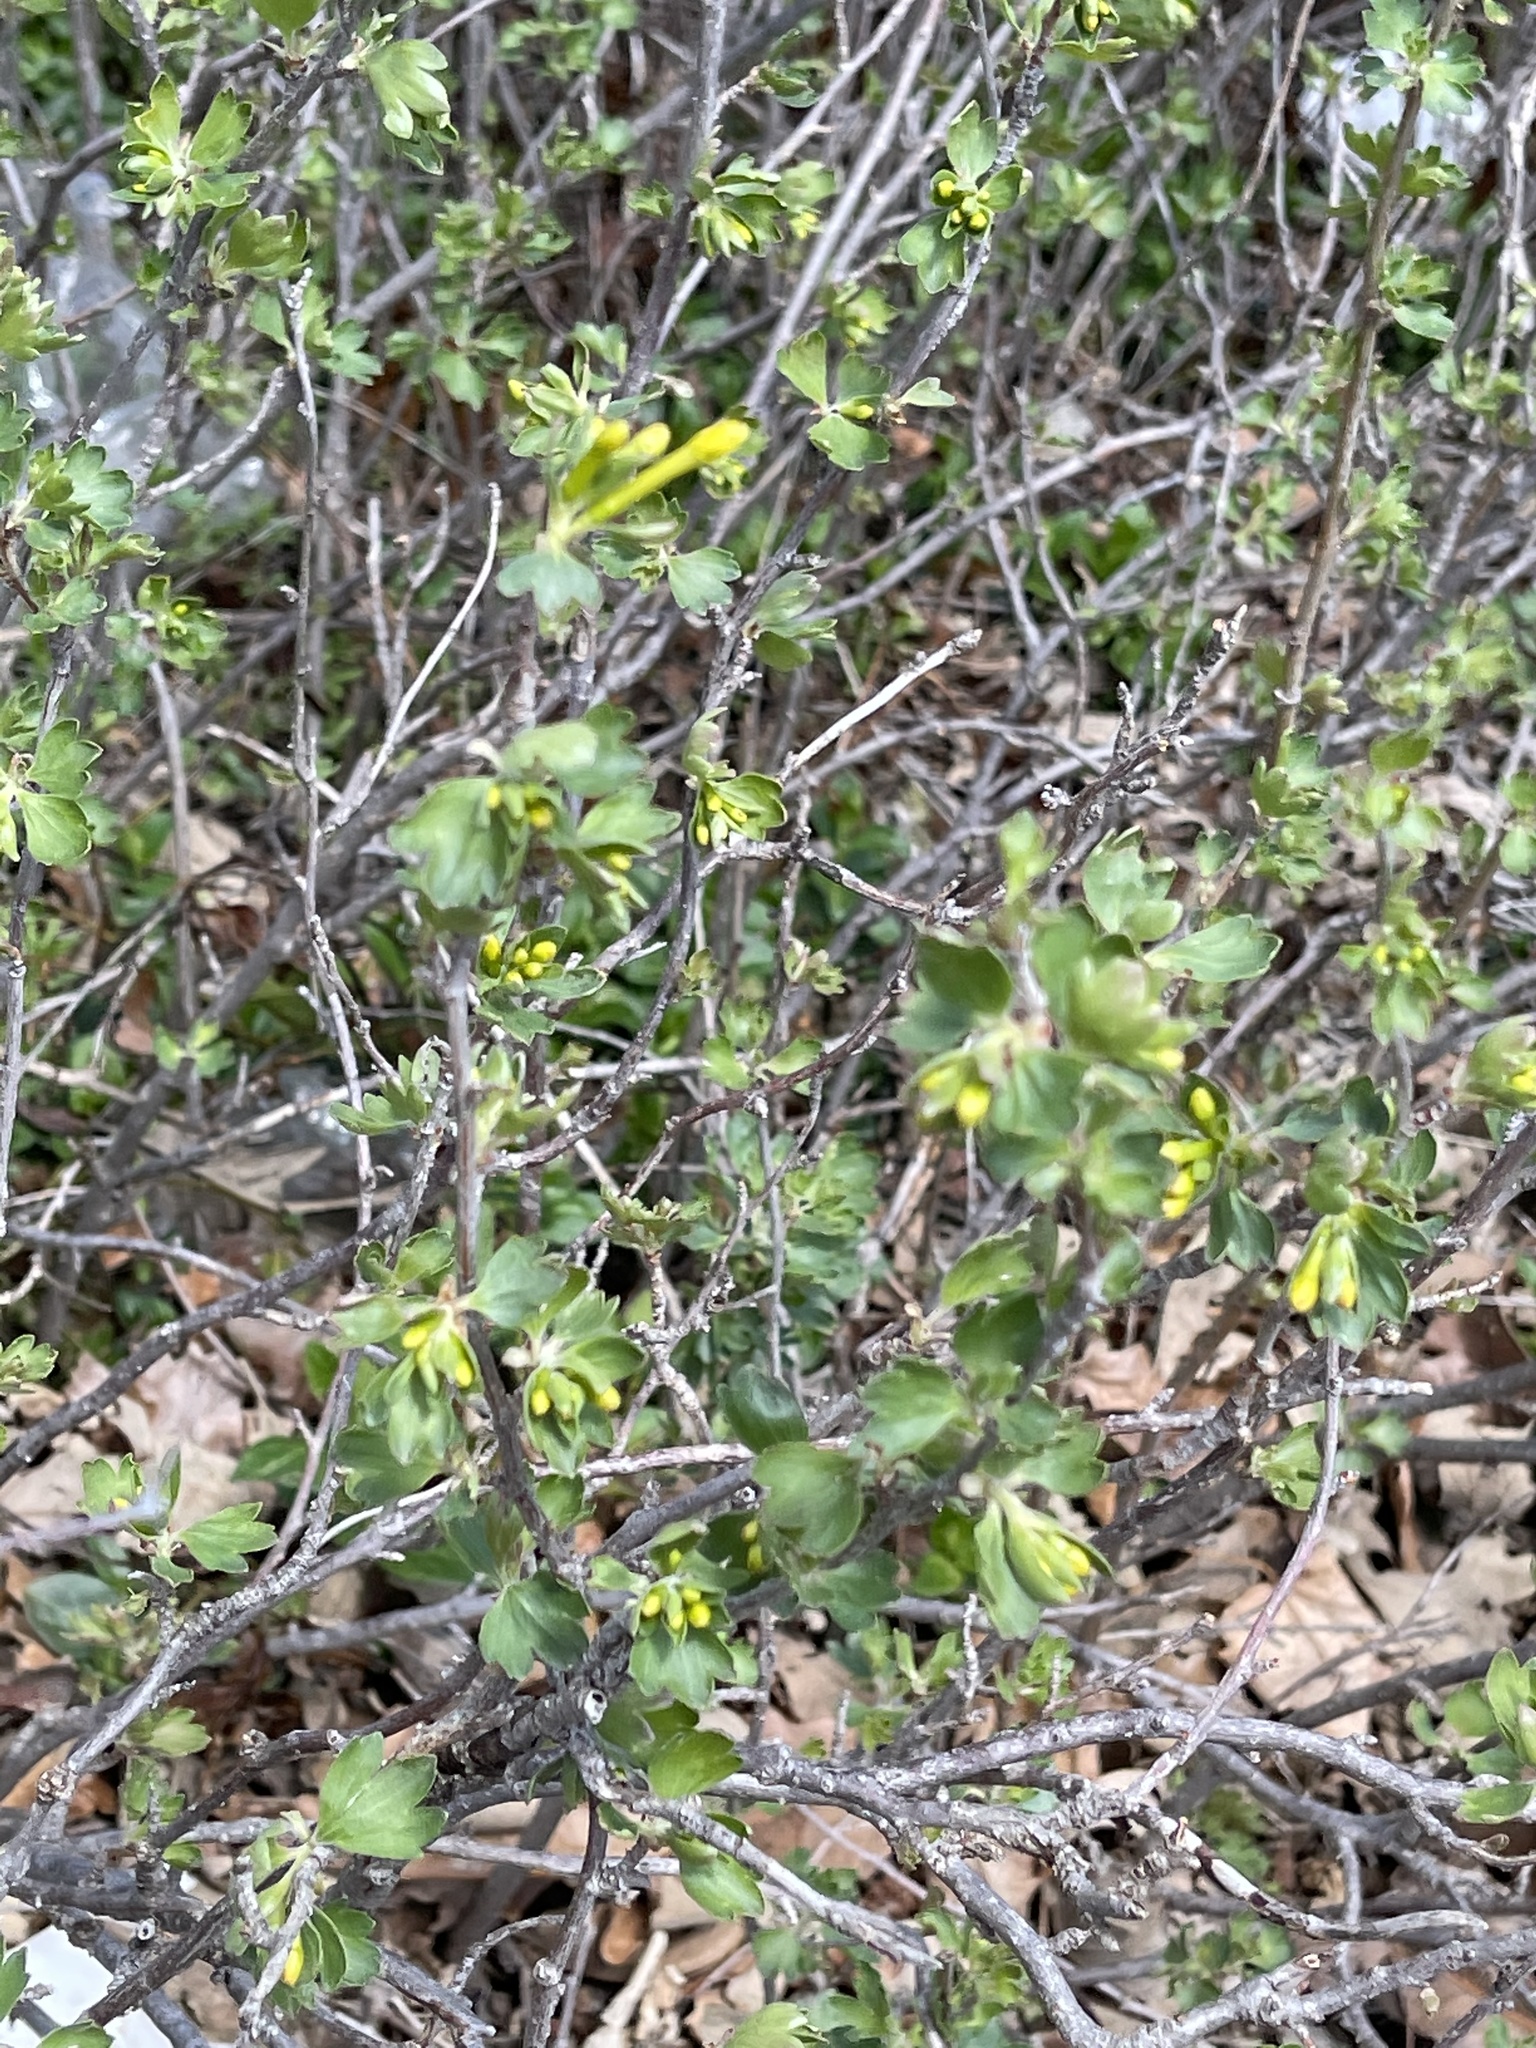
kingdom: Plantae
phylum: Tracheophyta
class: Magnoliopsida
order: Saxifragales
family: Grossulariaceae
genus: Ribes
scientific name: Ribes aureum
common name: Golden currant
